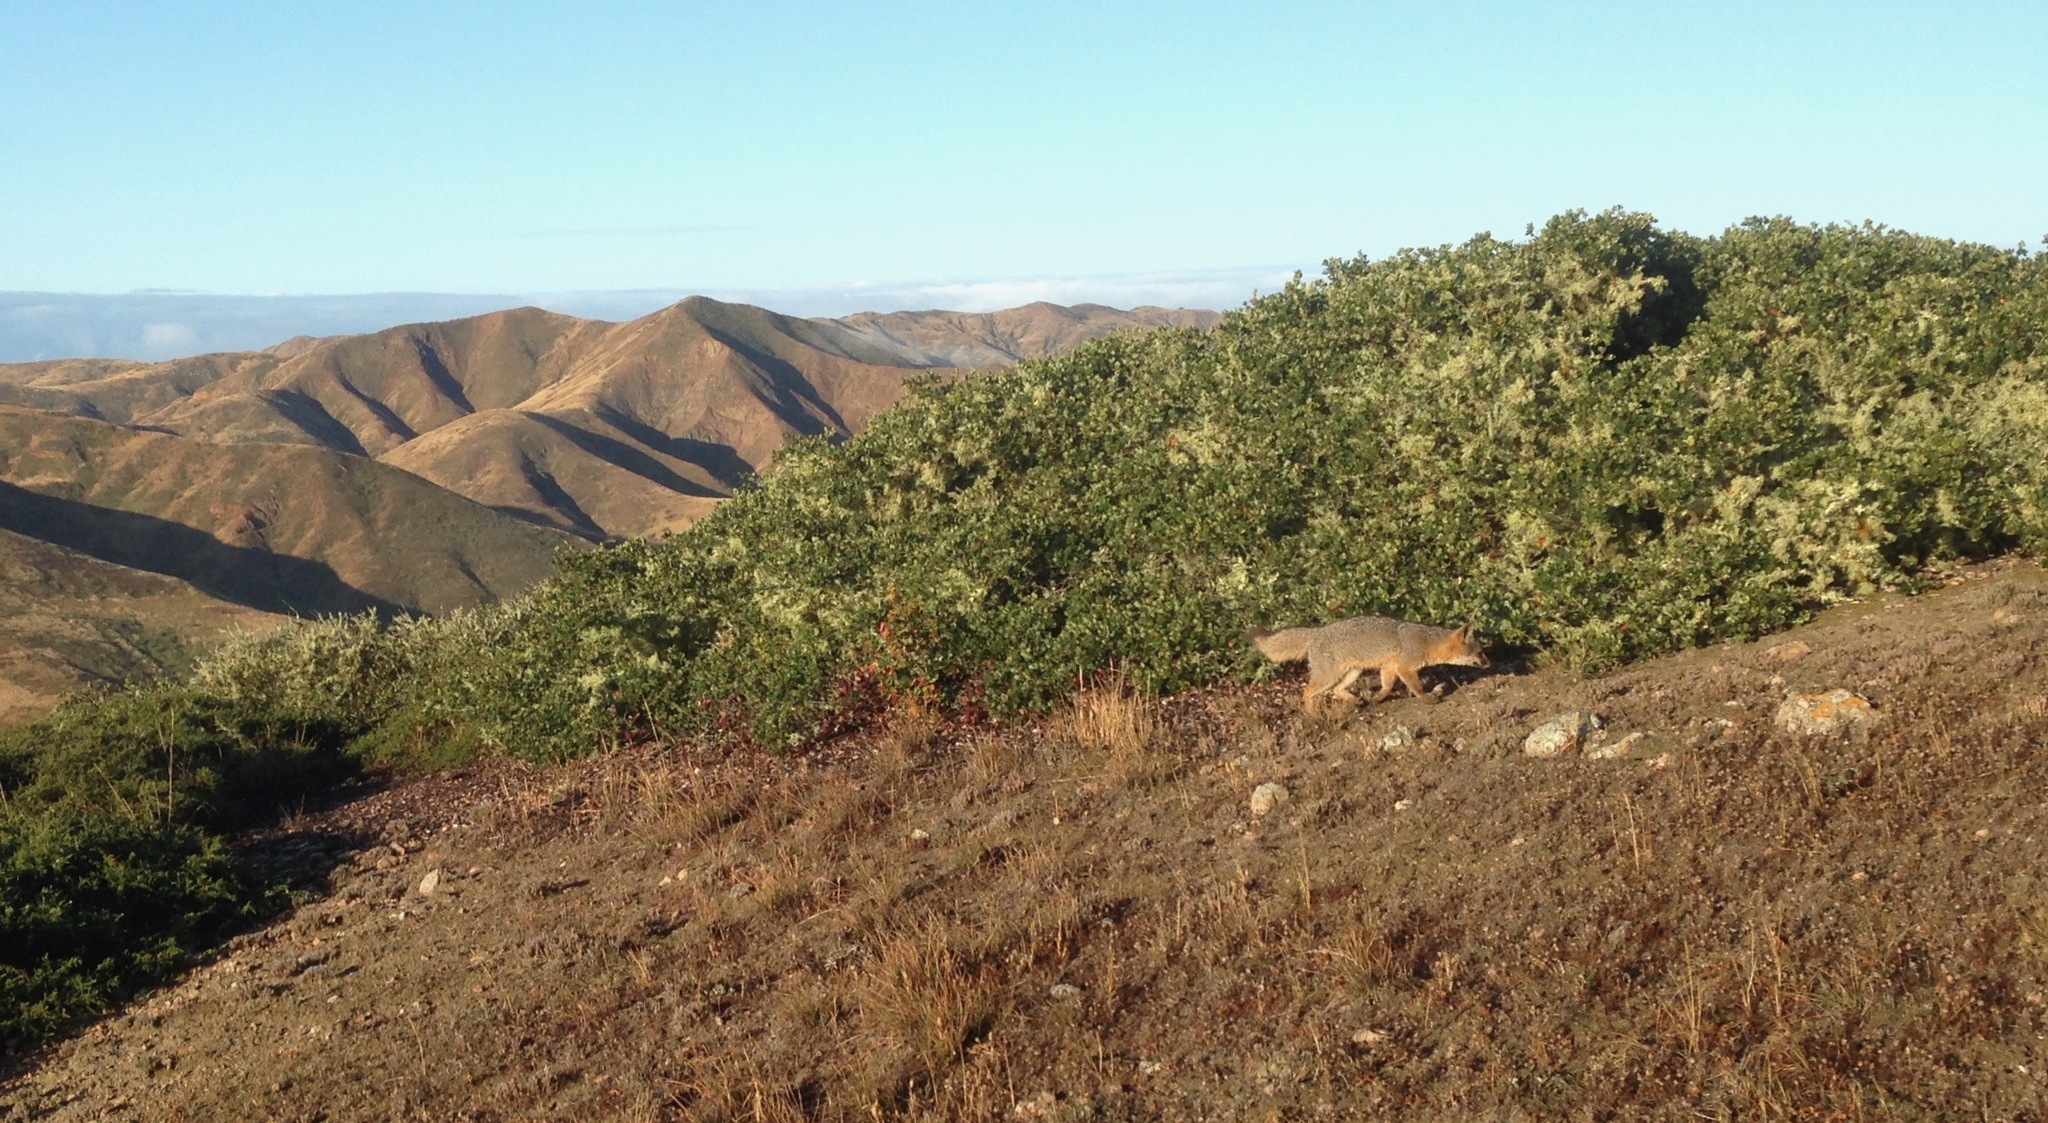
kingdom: Animalia
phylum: Chordata
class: Mammalia
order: Carnivora
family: Canidae
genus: Urocyon
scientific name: Urocyon littoralis
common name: Island gray fox
